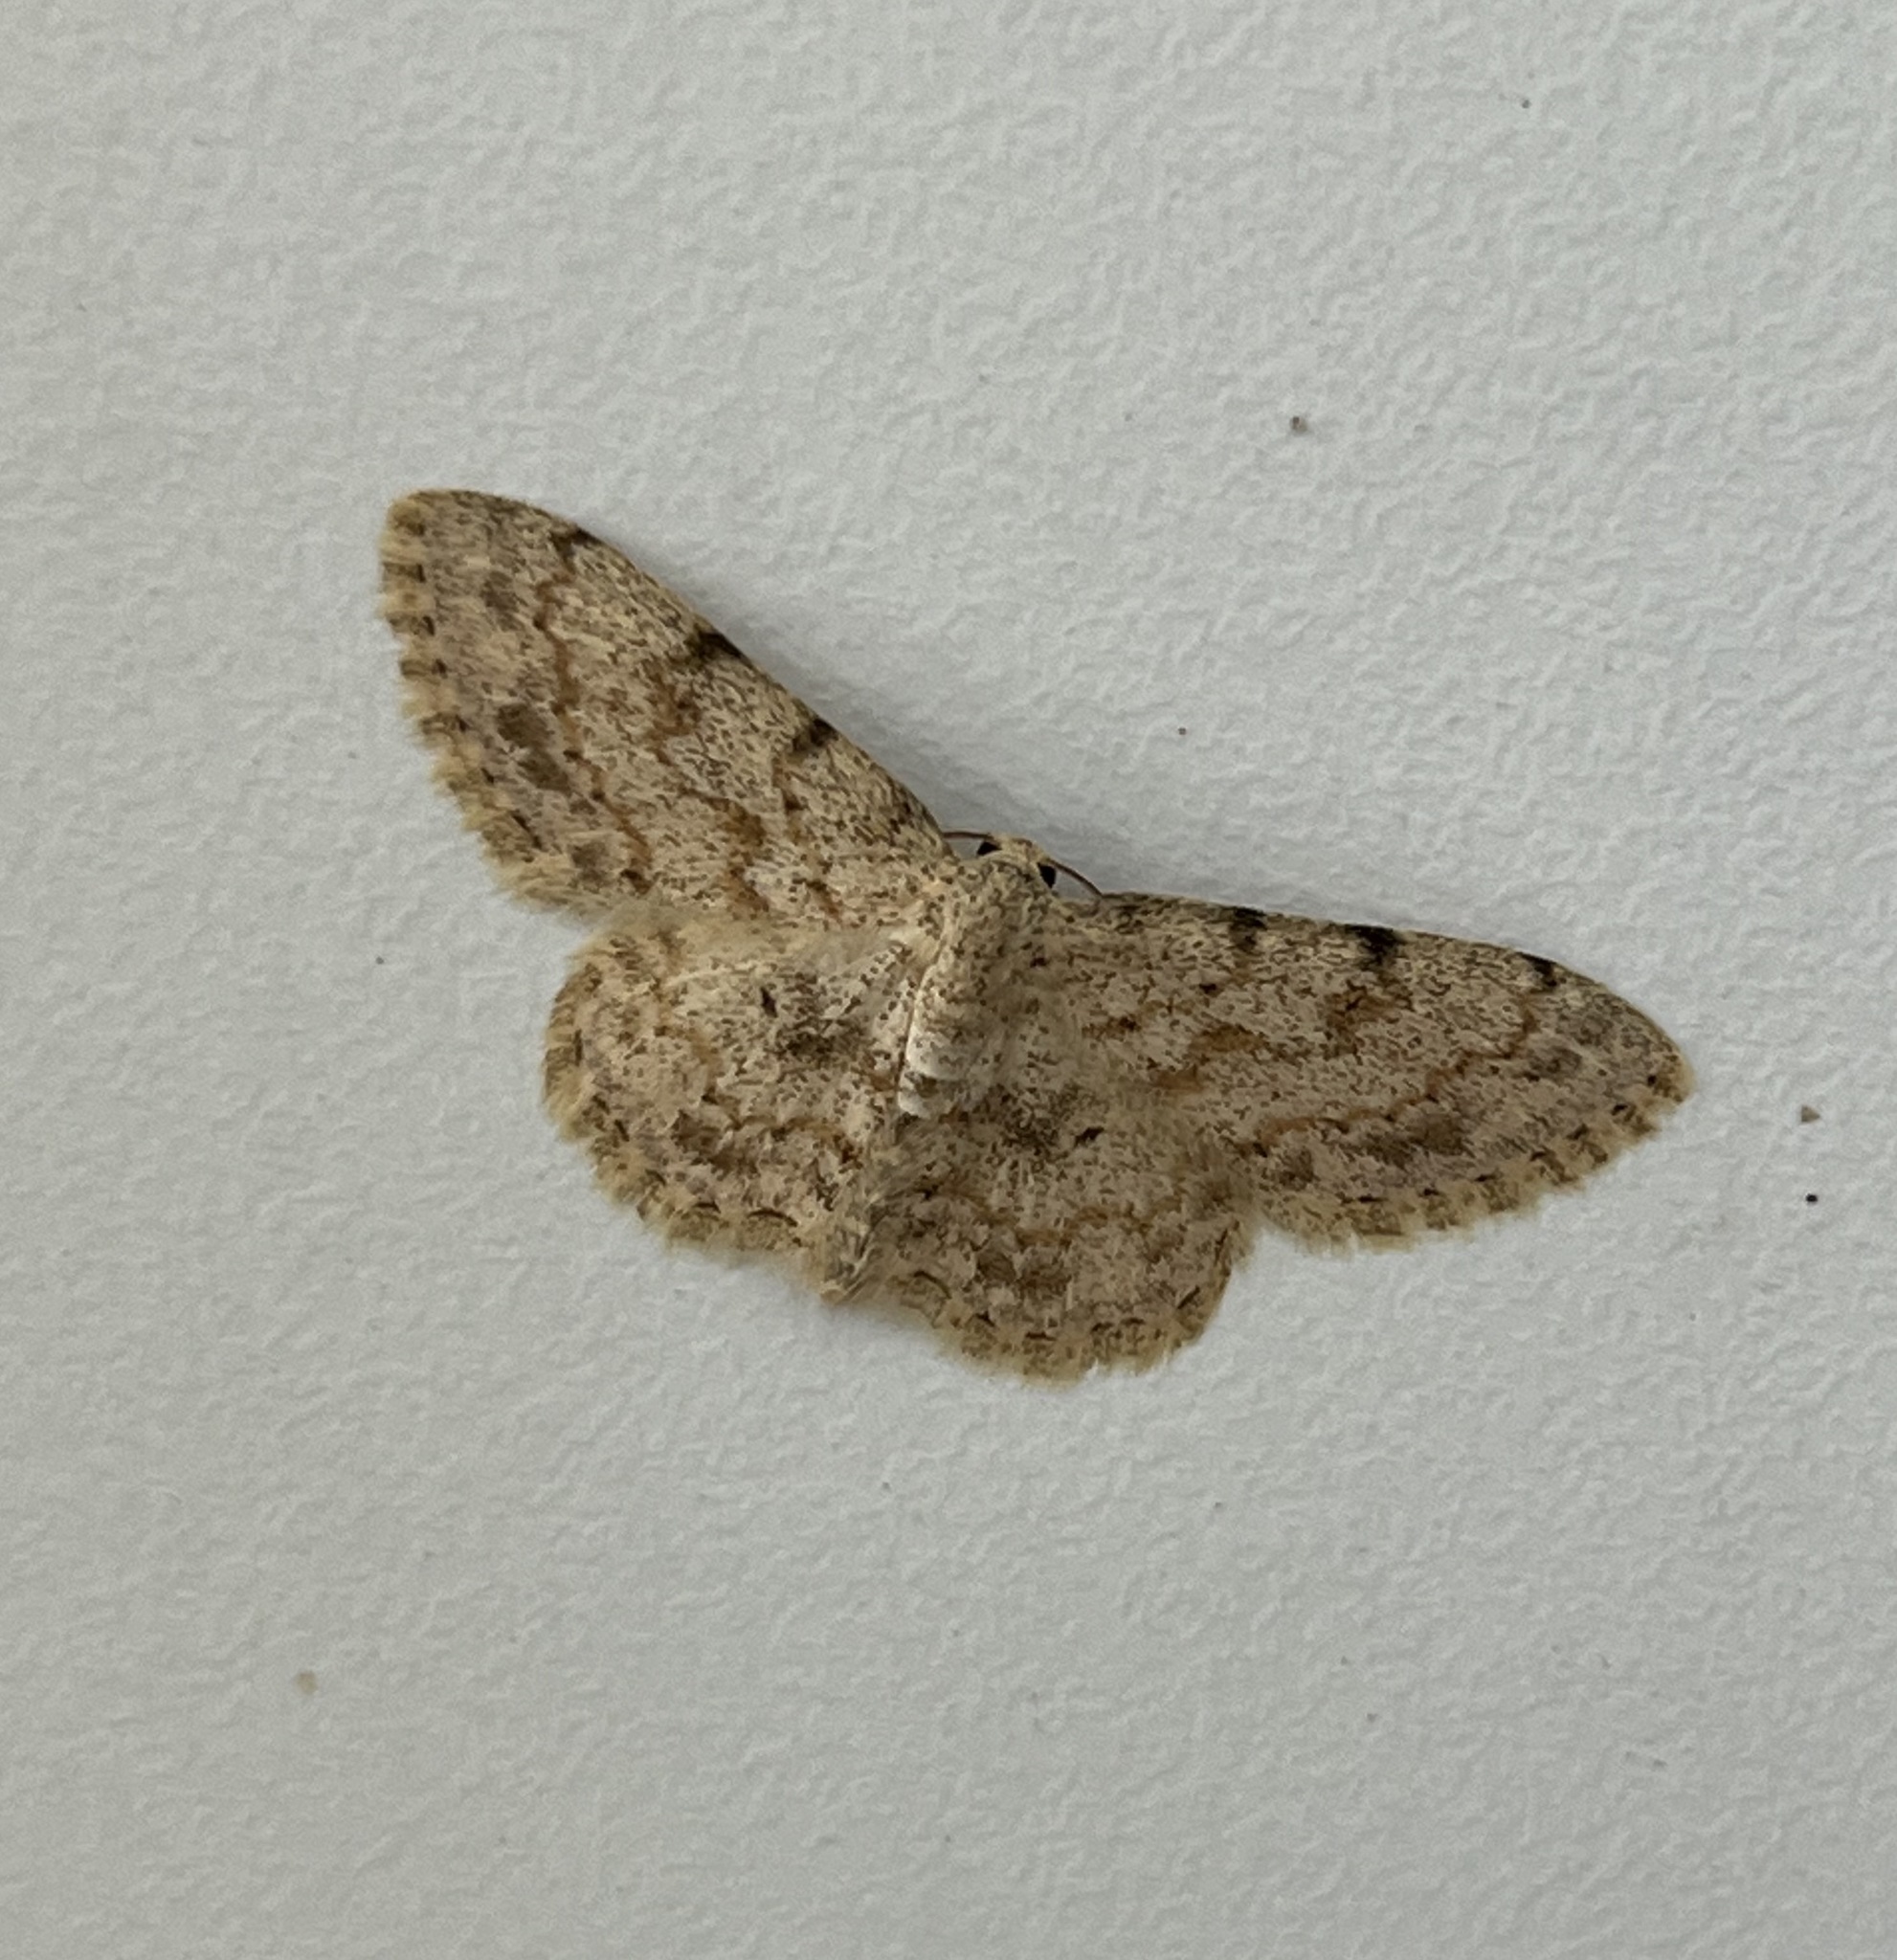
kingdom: Animalia
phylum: Arthropoda
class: Insecta
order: Lepidoptera
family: Geometridae
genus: Scopula
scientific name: Scopula luridata
